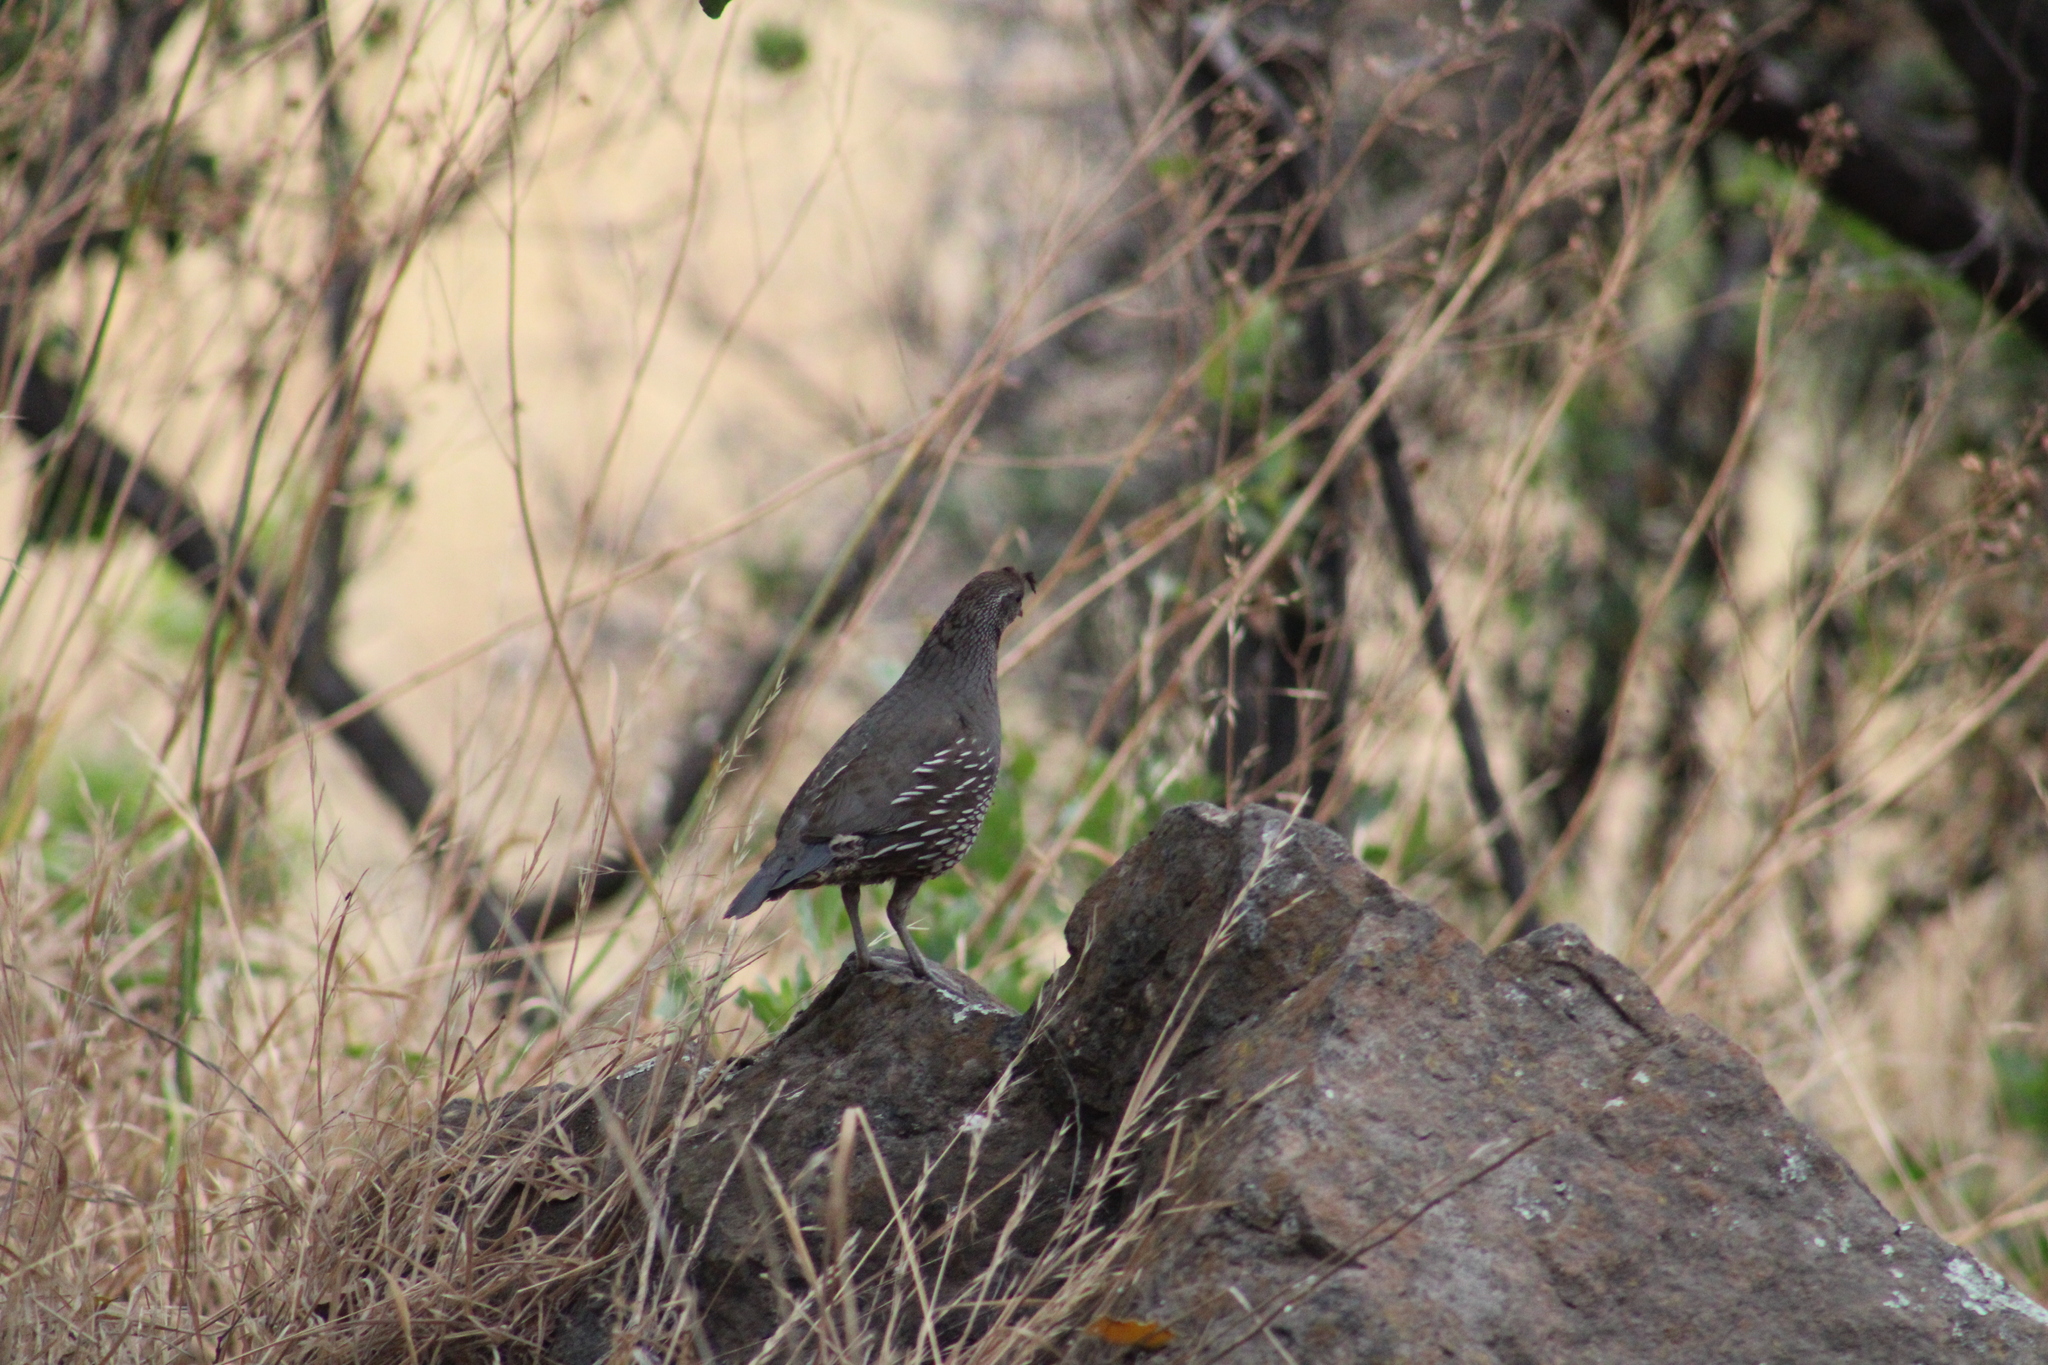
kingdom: Animalia
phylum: Chordata
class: Aves
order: Galliformes
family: Odontophoridae
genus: Callipepla
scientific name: Callipepla californica
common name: California quail
